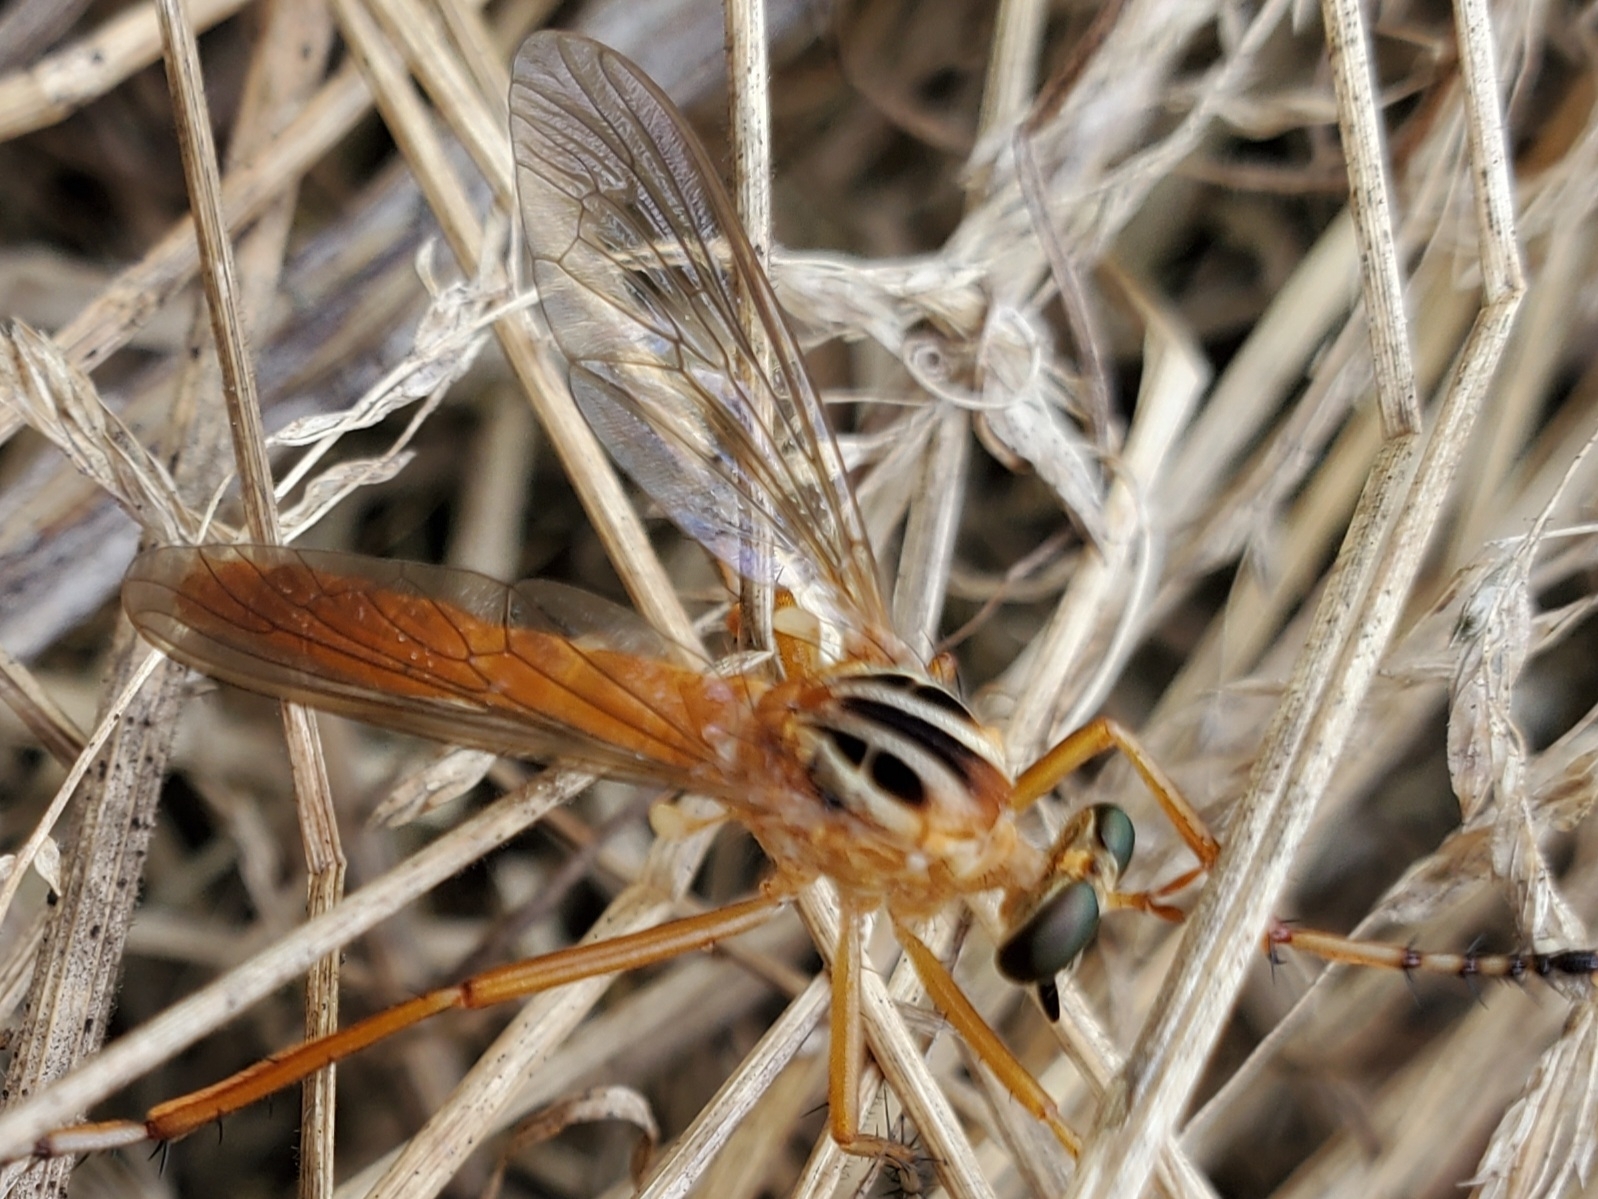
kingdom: Animalia
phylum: Arthropoda
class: Insecta
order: Diptera
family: Asilidae
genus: Diogmites
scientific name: Diogmites neoternatus
